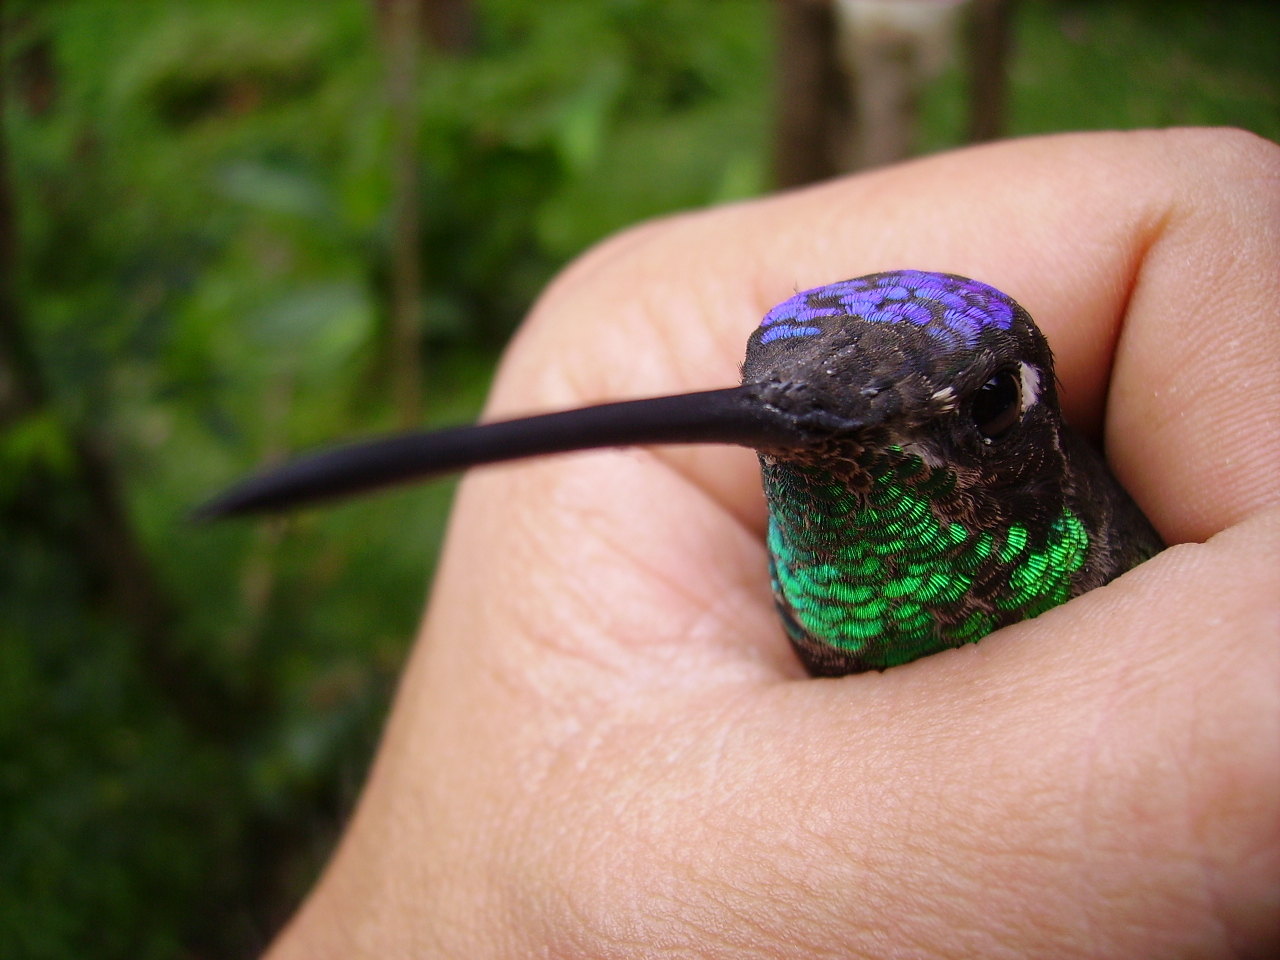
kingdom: Animalia
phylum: Chordata
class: Aves
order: Apodiformes
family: Trochilidae
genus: Eugenes
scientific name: Eugenes fulgens
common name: Magnificent hummingbird
